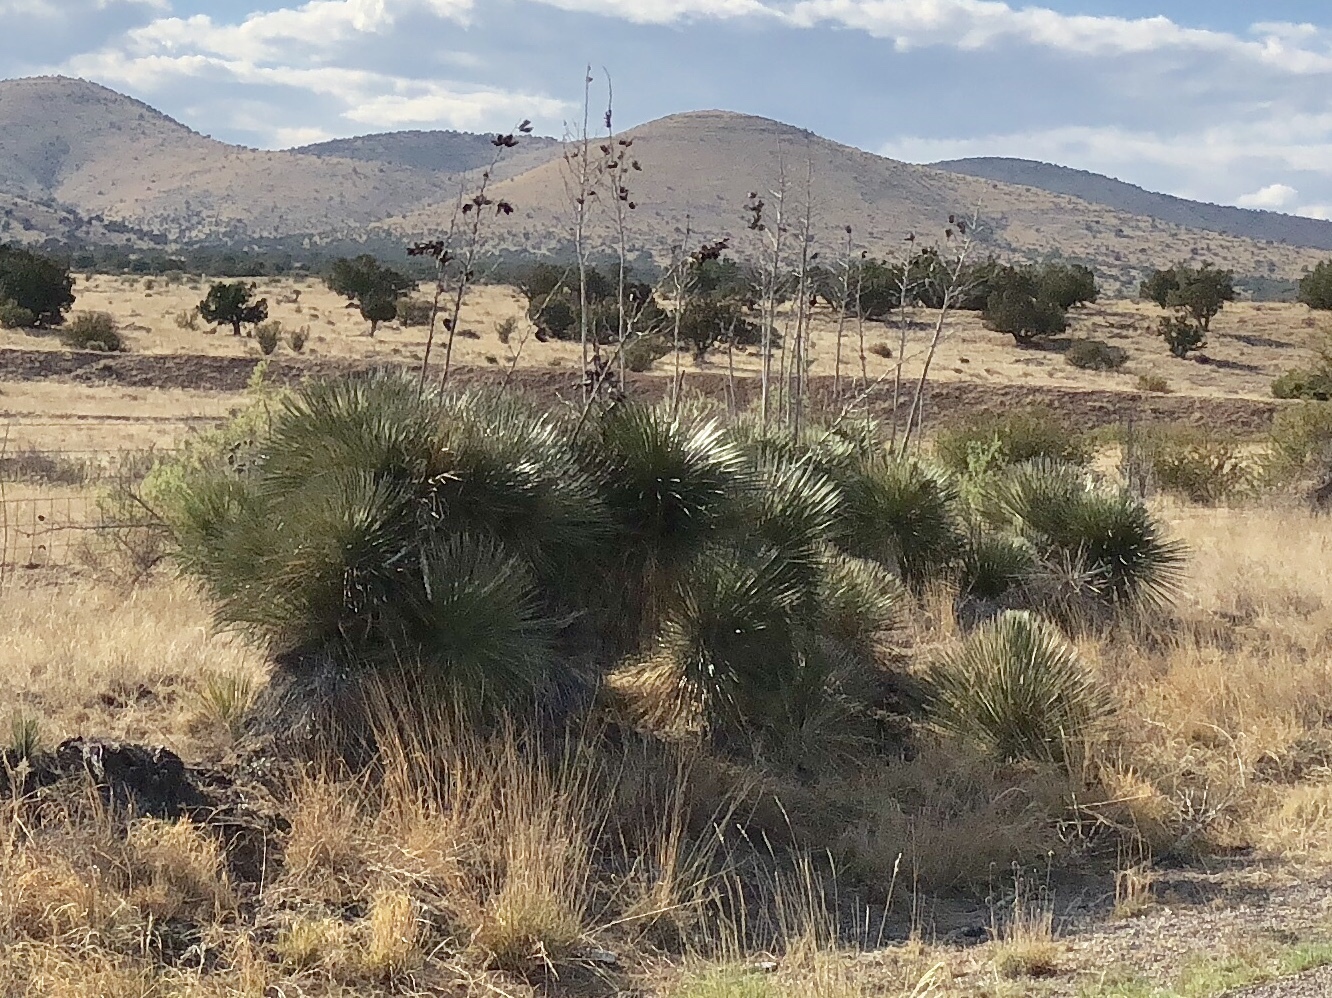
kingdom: Plantae
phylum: Tracheophyta
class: Liliopsida
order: Asparagales
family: Asparagaceae
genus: Yucca
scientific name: Yucca elata
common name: Palmella
